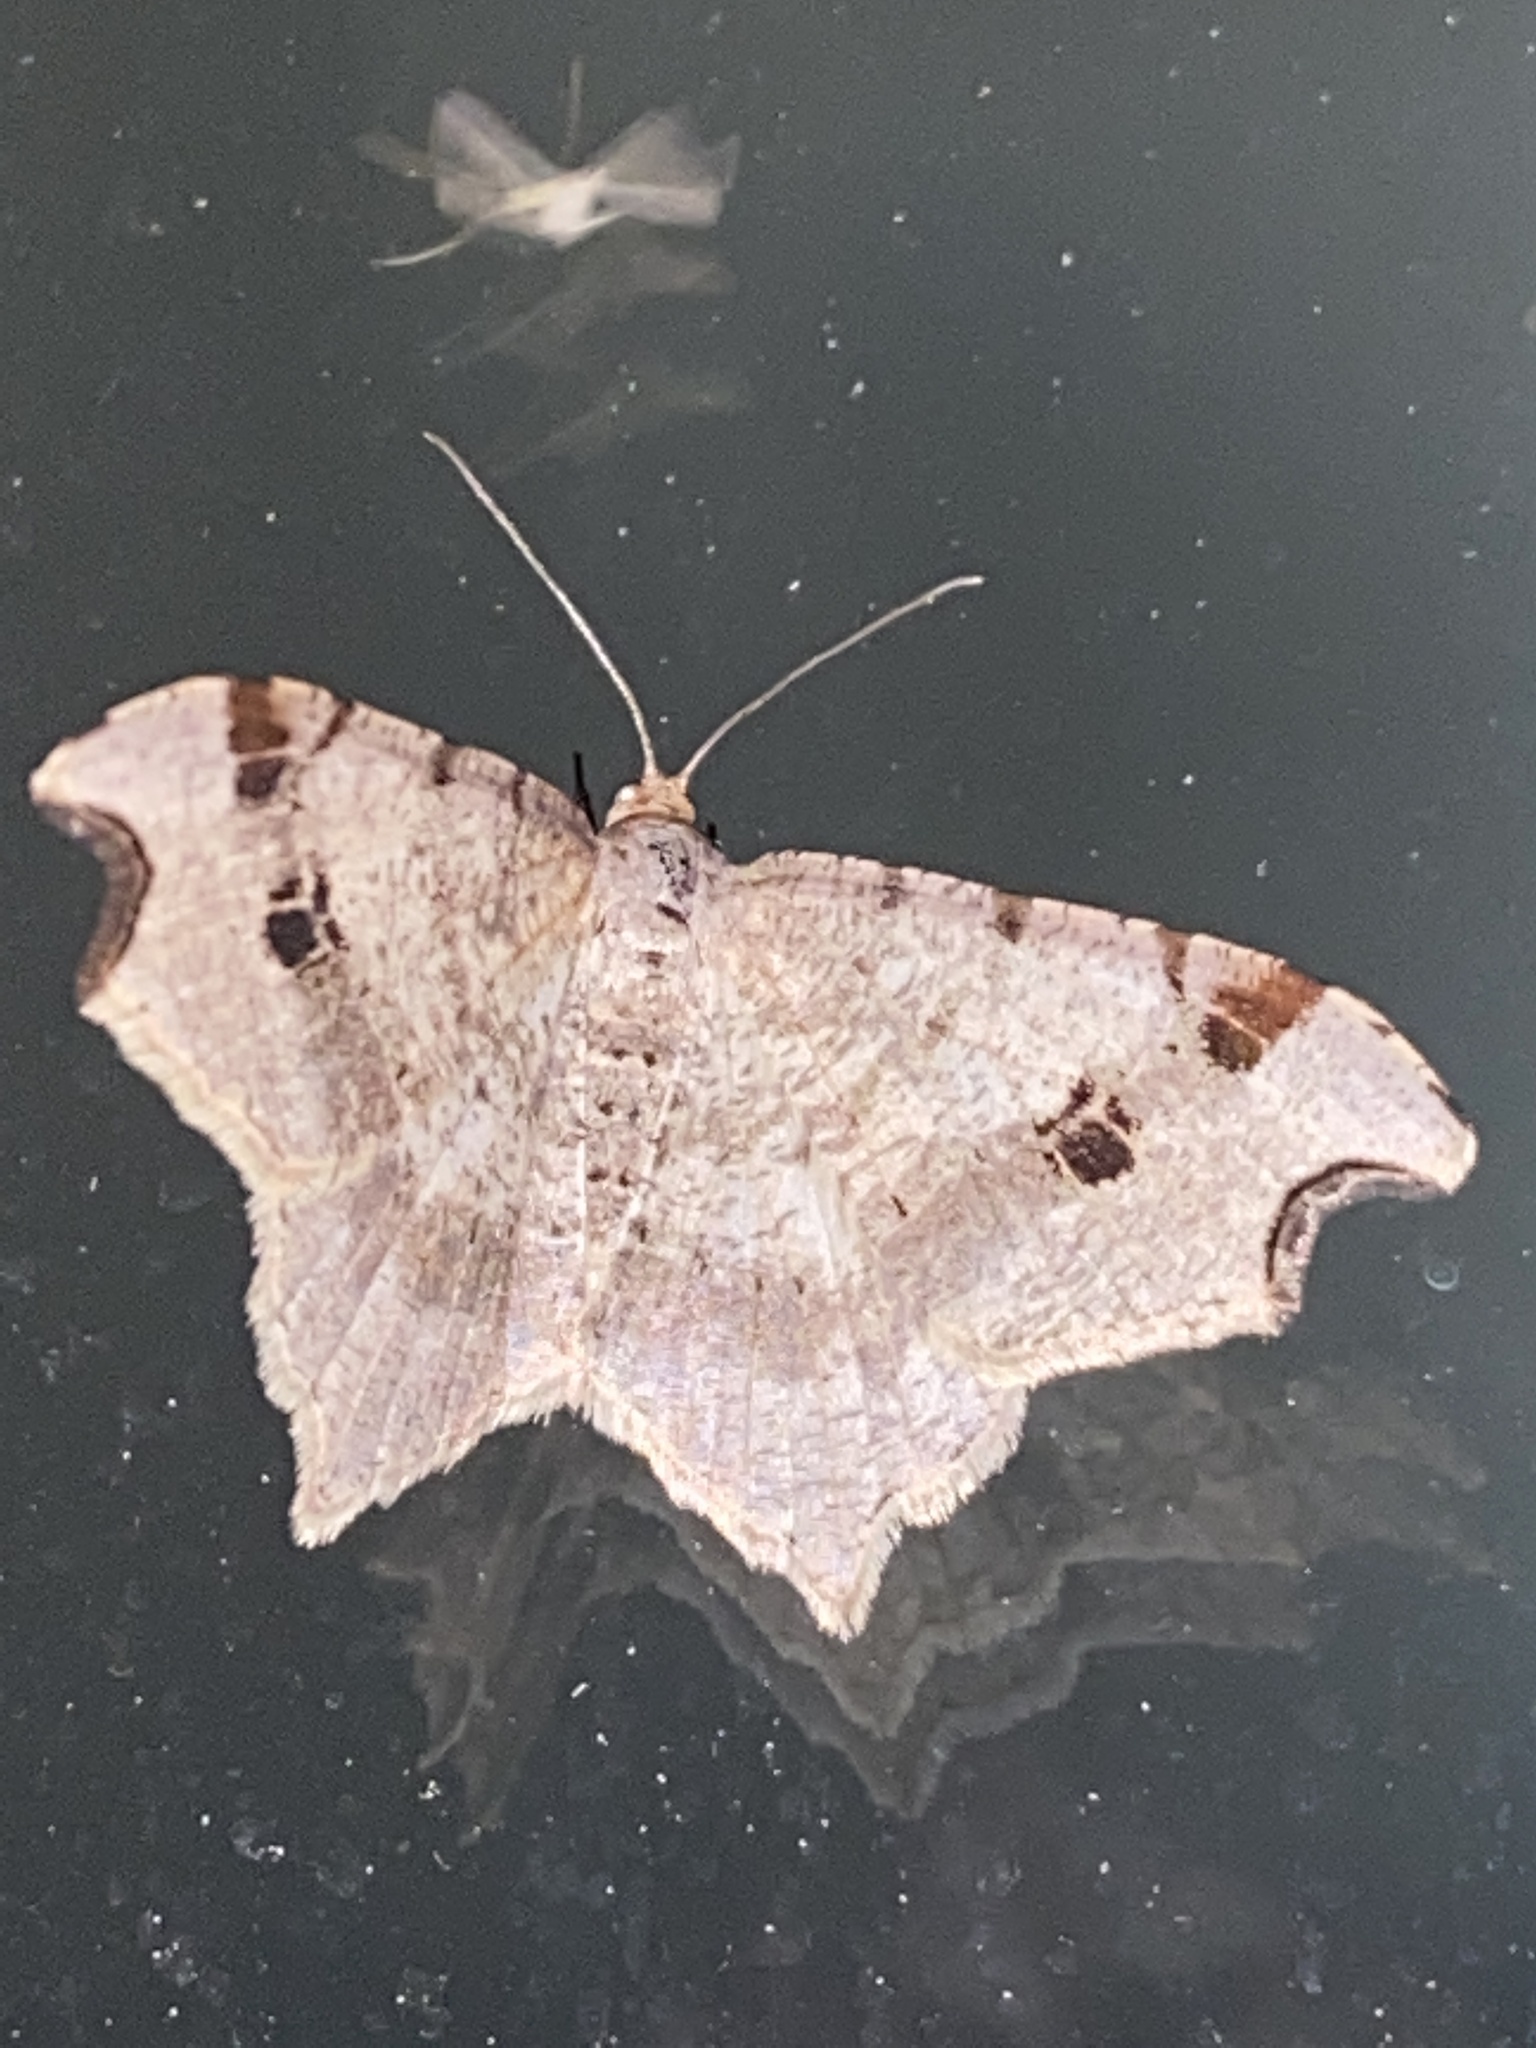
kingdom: Animalia
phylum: Arthropoda
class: Insecta
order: Lepidoptera
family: Geometridae
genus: Macaria
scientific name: Macaria alternata
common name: Sharp-angled peacock
